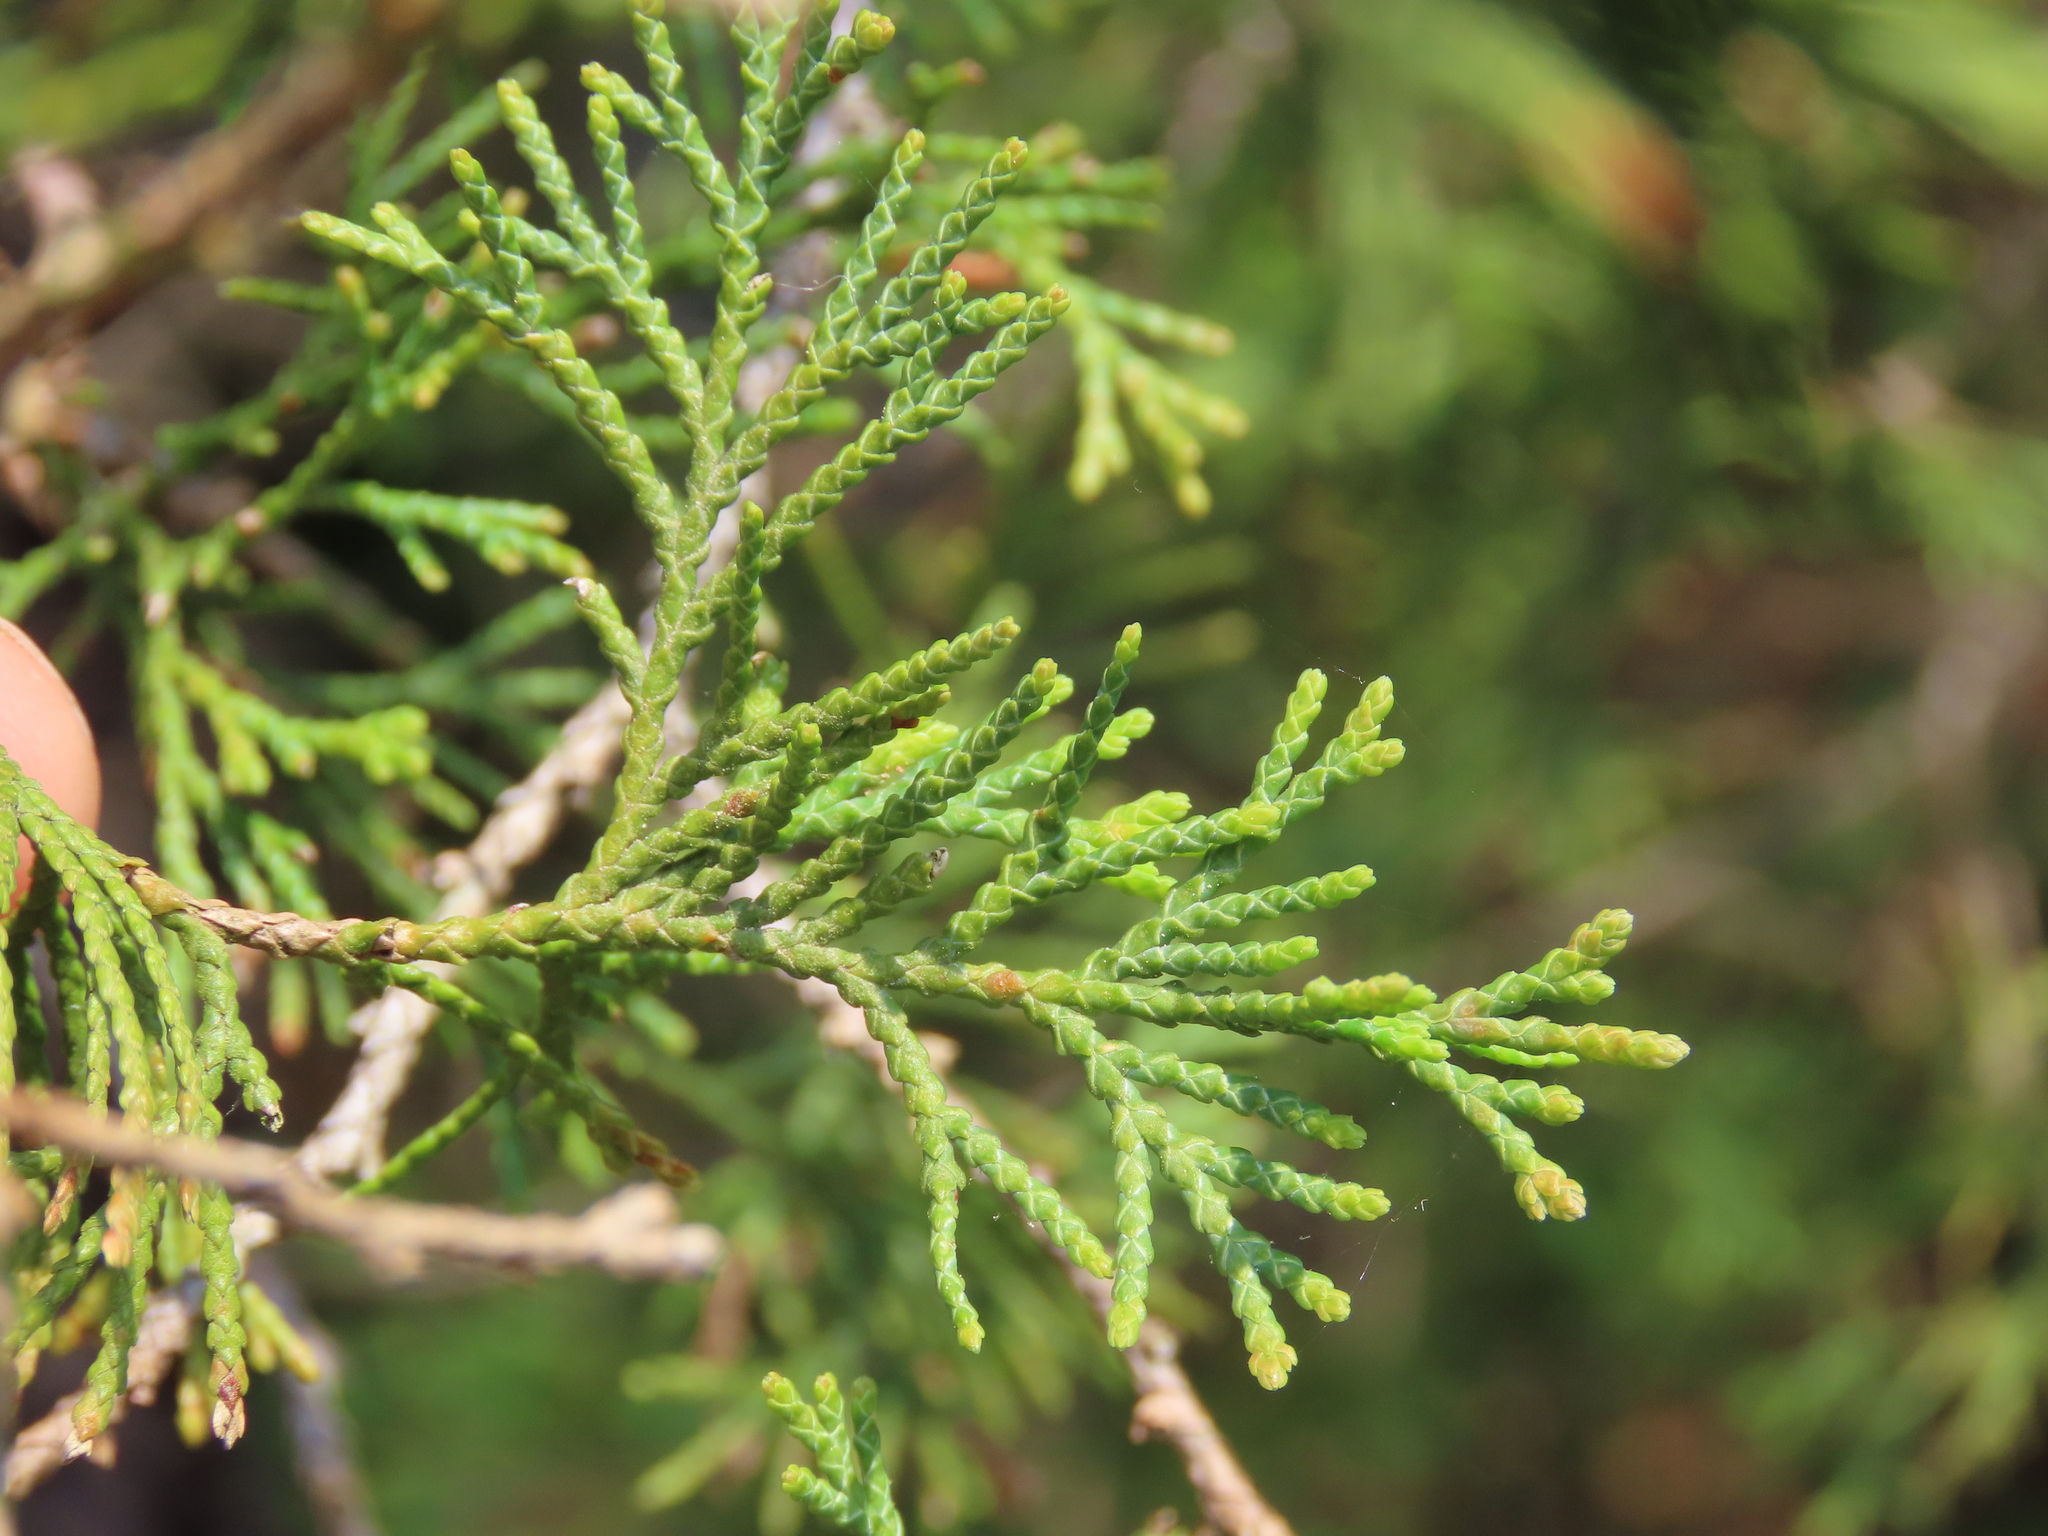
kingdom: Plantae
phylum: Tracheophyta
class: Pinopsida
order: Pinales
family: Cupressaceae
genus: Chamaecyparis
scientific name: Chamaecyparis thyoides
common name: Atlantic white cedar
